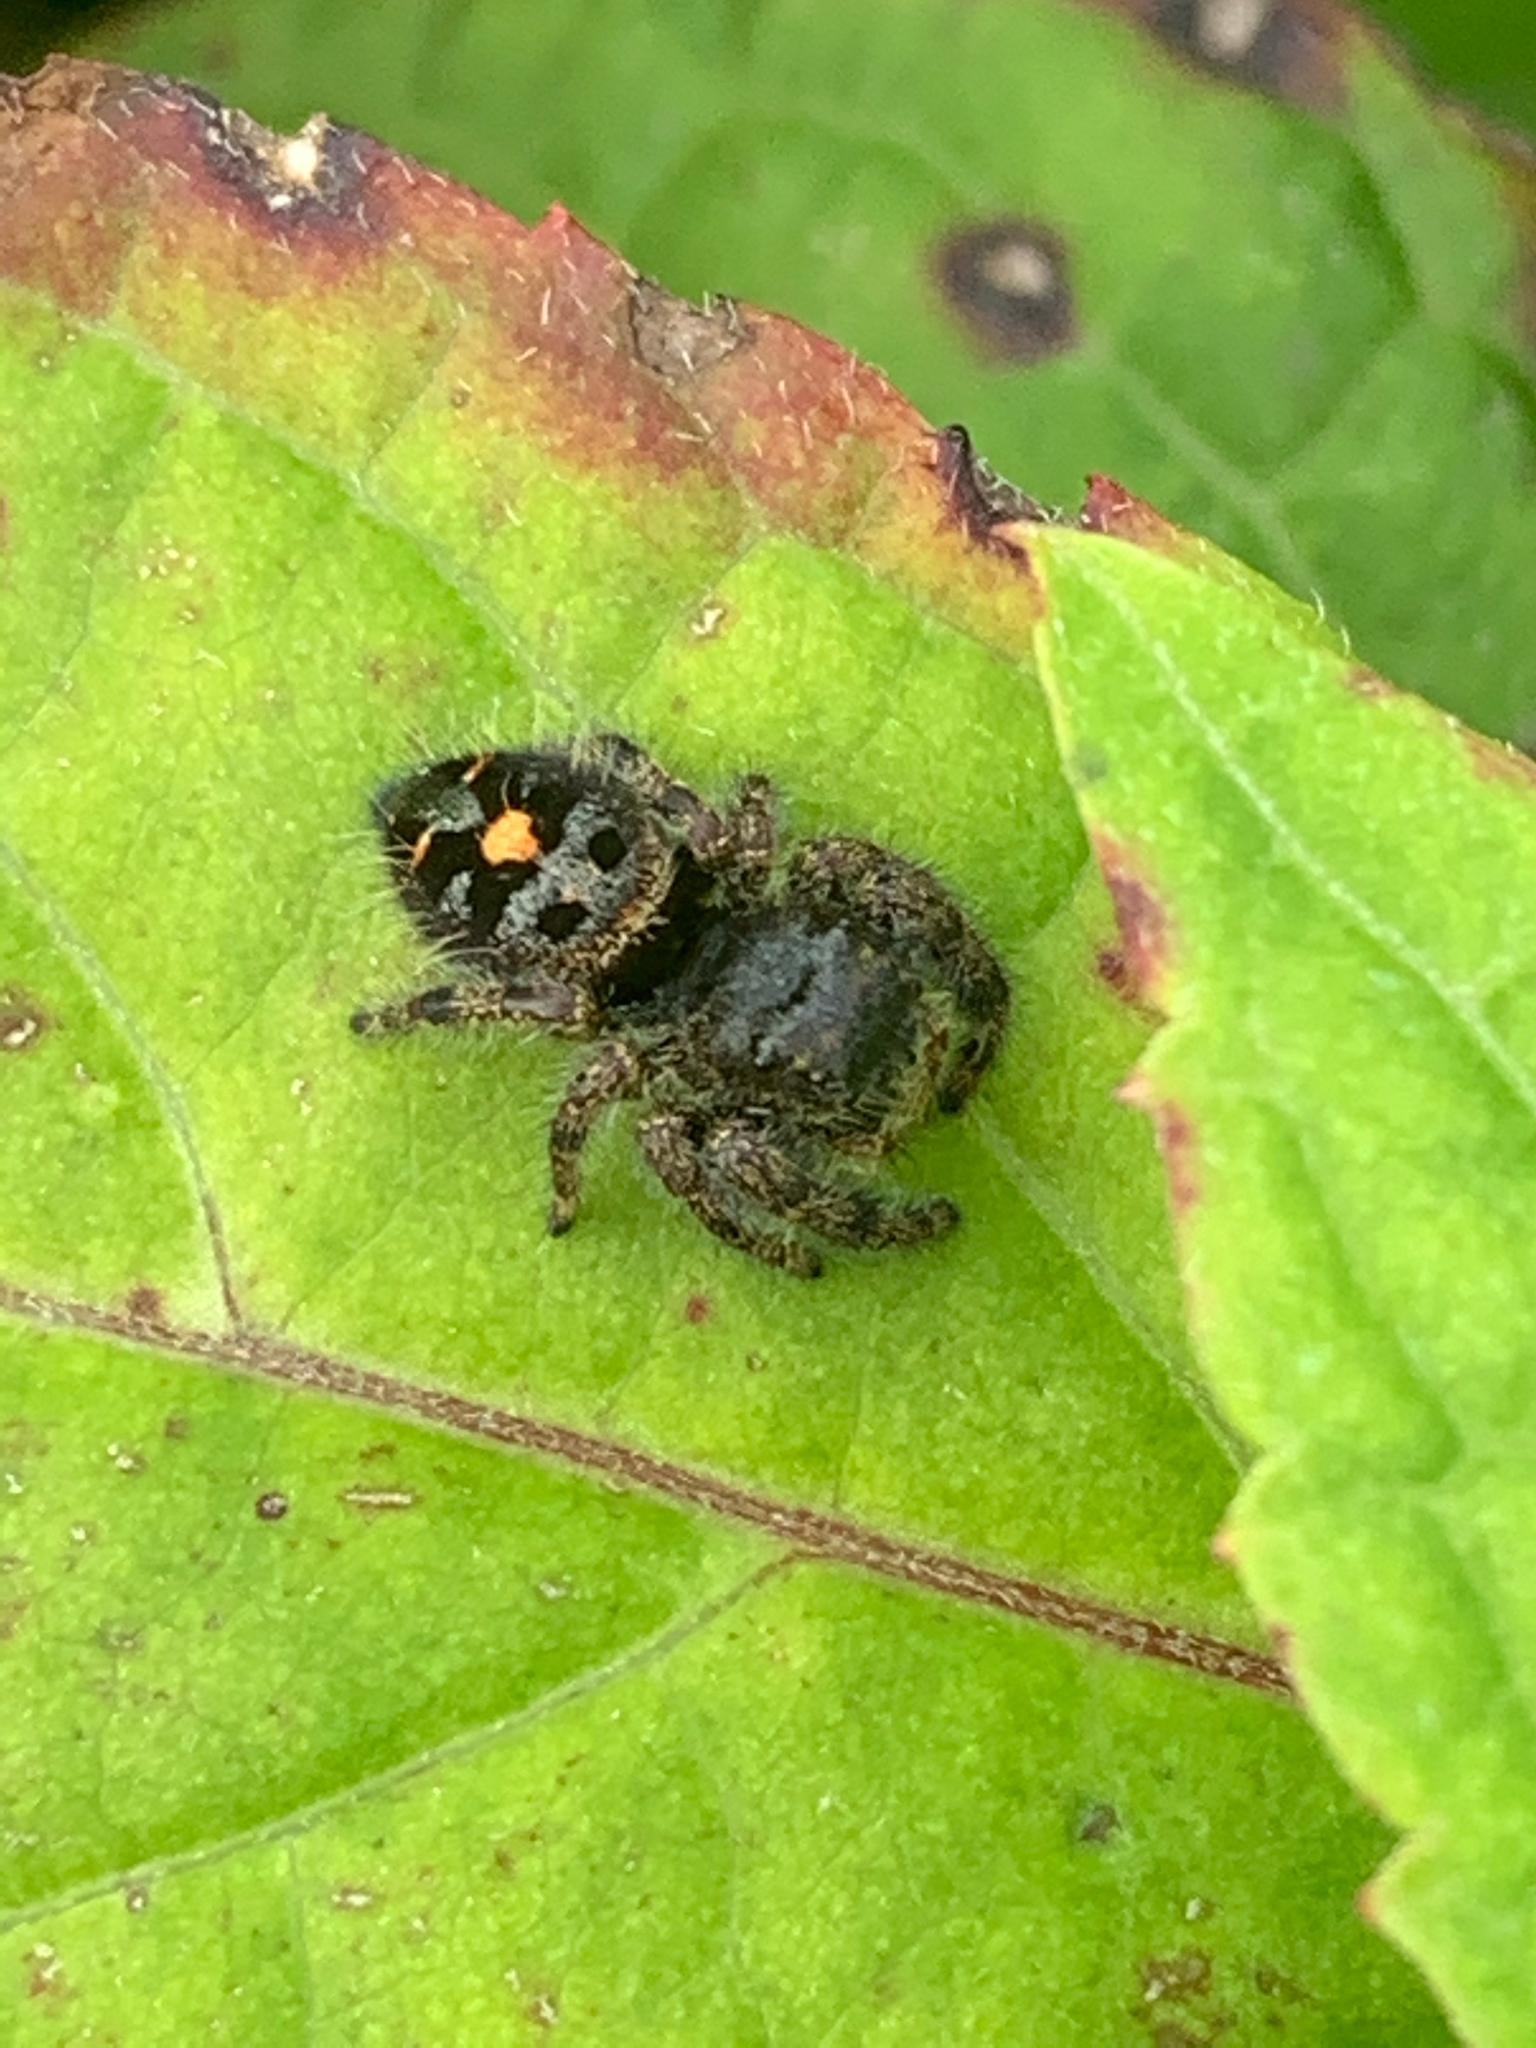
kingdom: Animalia
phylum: Arthropoda
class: Arachnida
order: Araneae
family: Salticidae
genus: Phidippus
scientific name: Phidippus audax
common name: Bold jumper
